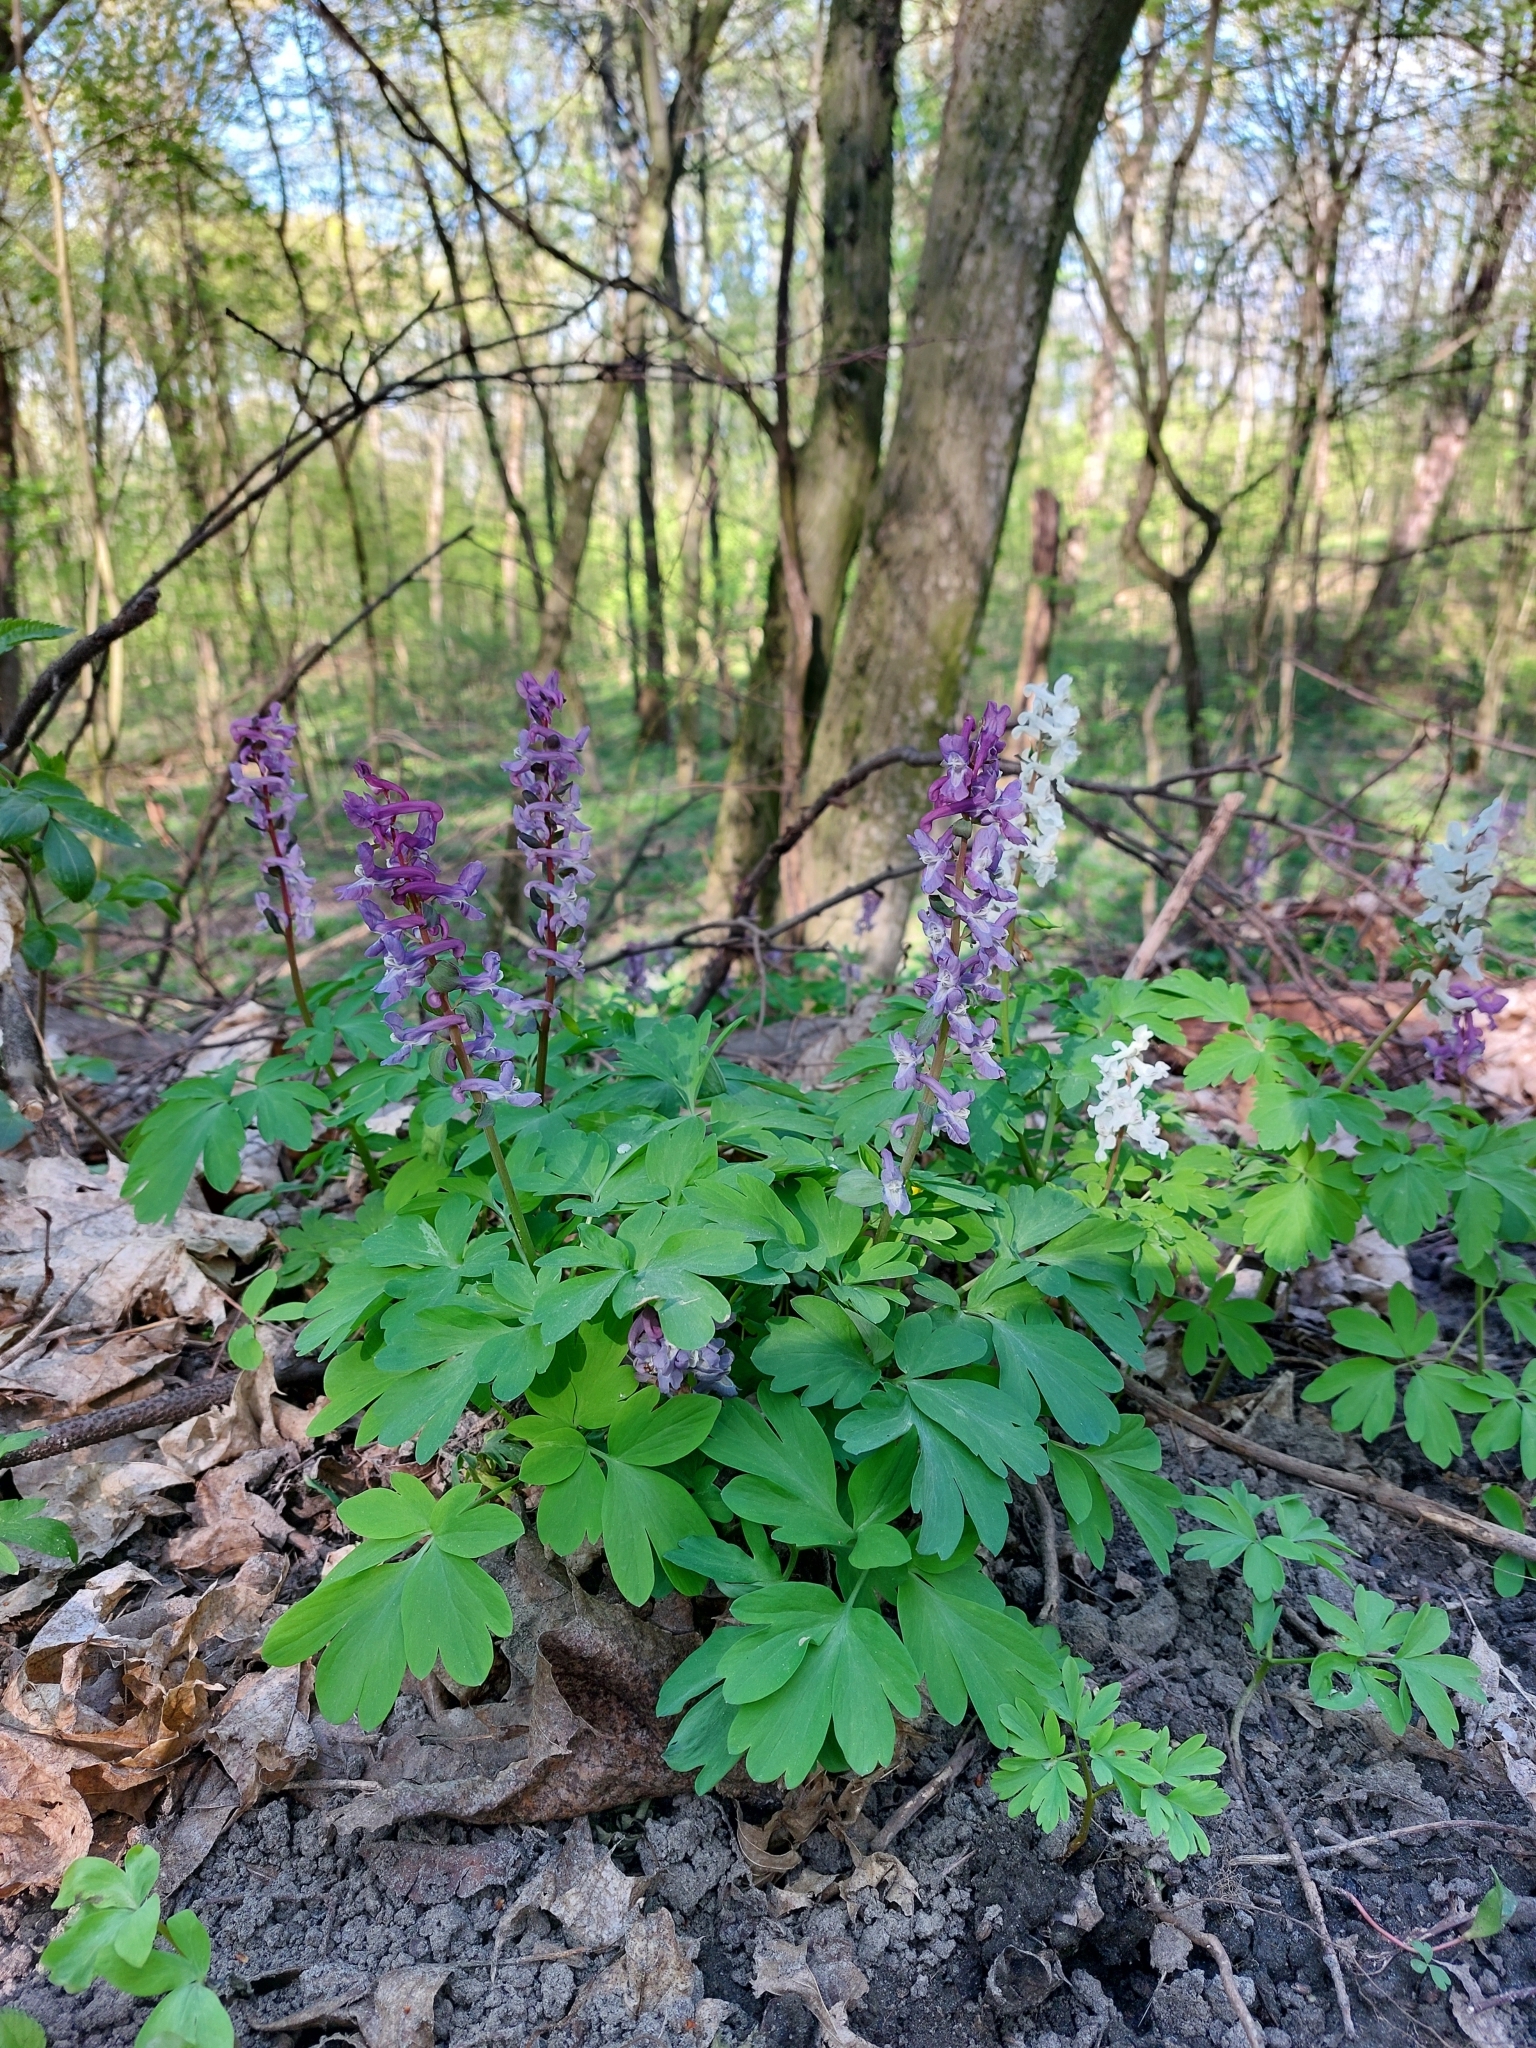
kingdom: Plantae
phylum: Tracheophyta
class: Magnoliopsida
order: Ranunculales
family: Papaveraceae
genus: Corydalis
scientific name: Corydalis cava
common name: Hollowroot
